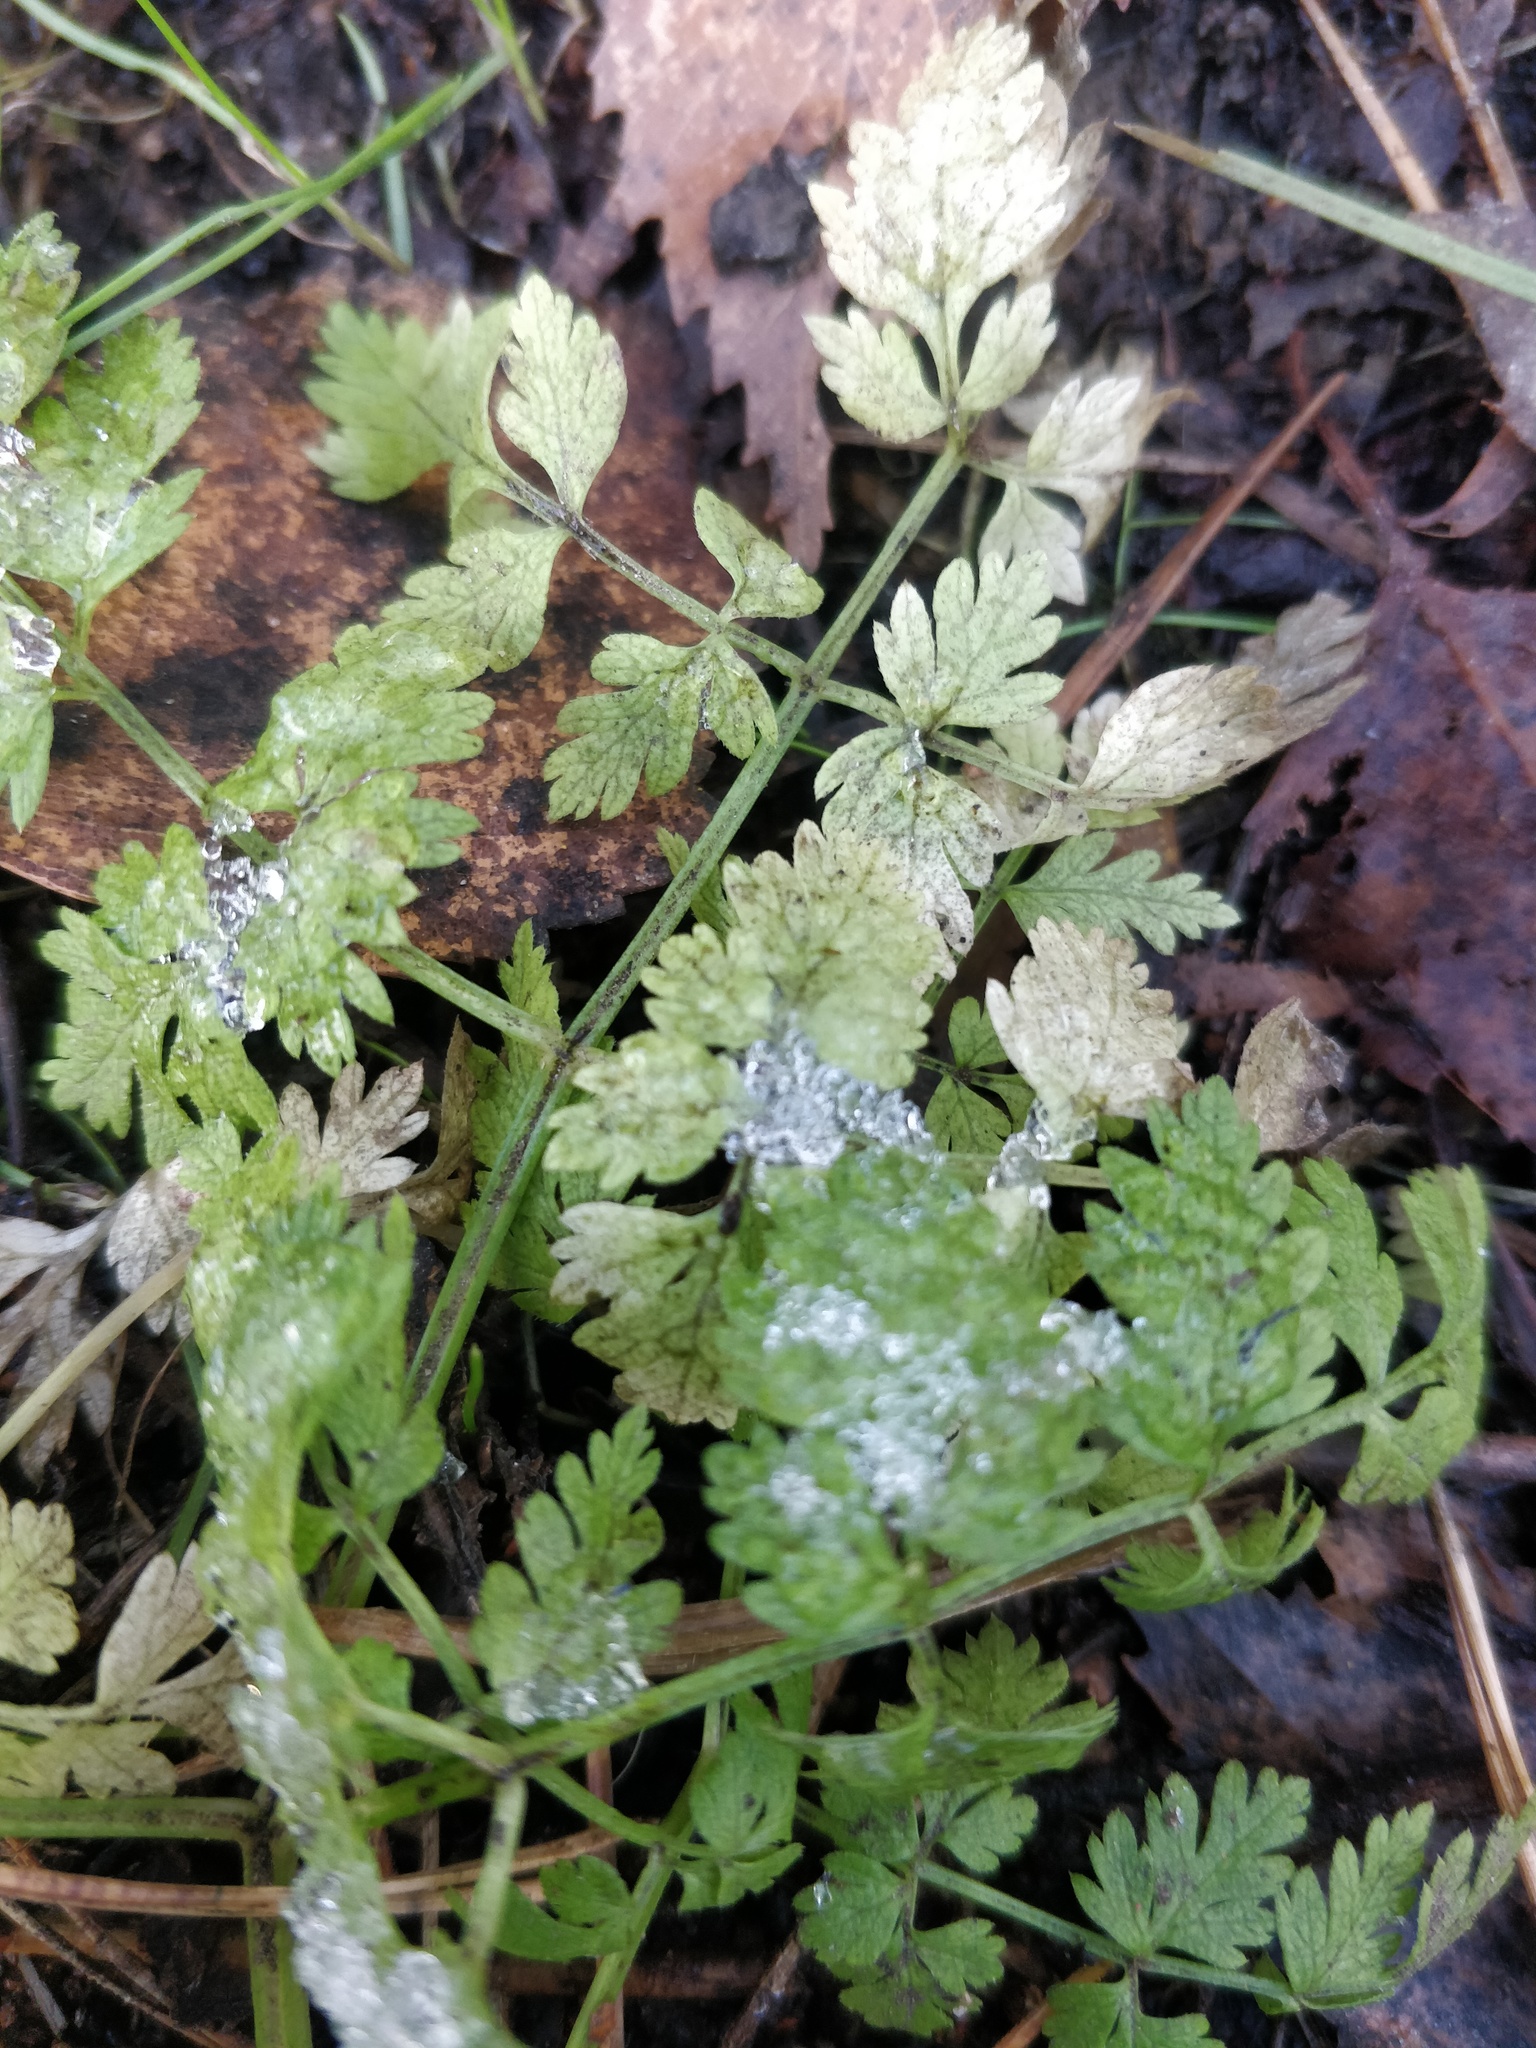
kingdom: Plantae
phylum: Tracheophyta
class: Magnoliopsida
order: Apiales
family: Apiaceae
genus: Anthriscus
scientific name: Anthriscus sylvestris
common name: Cow parsley
